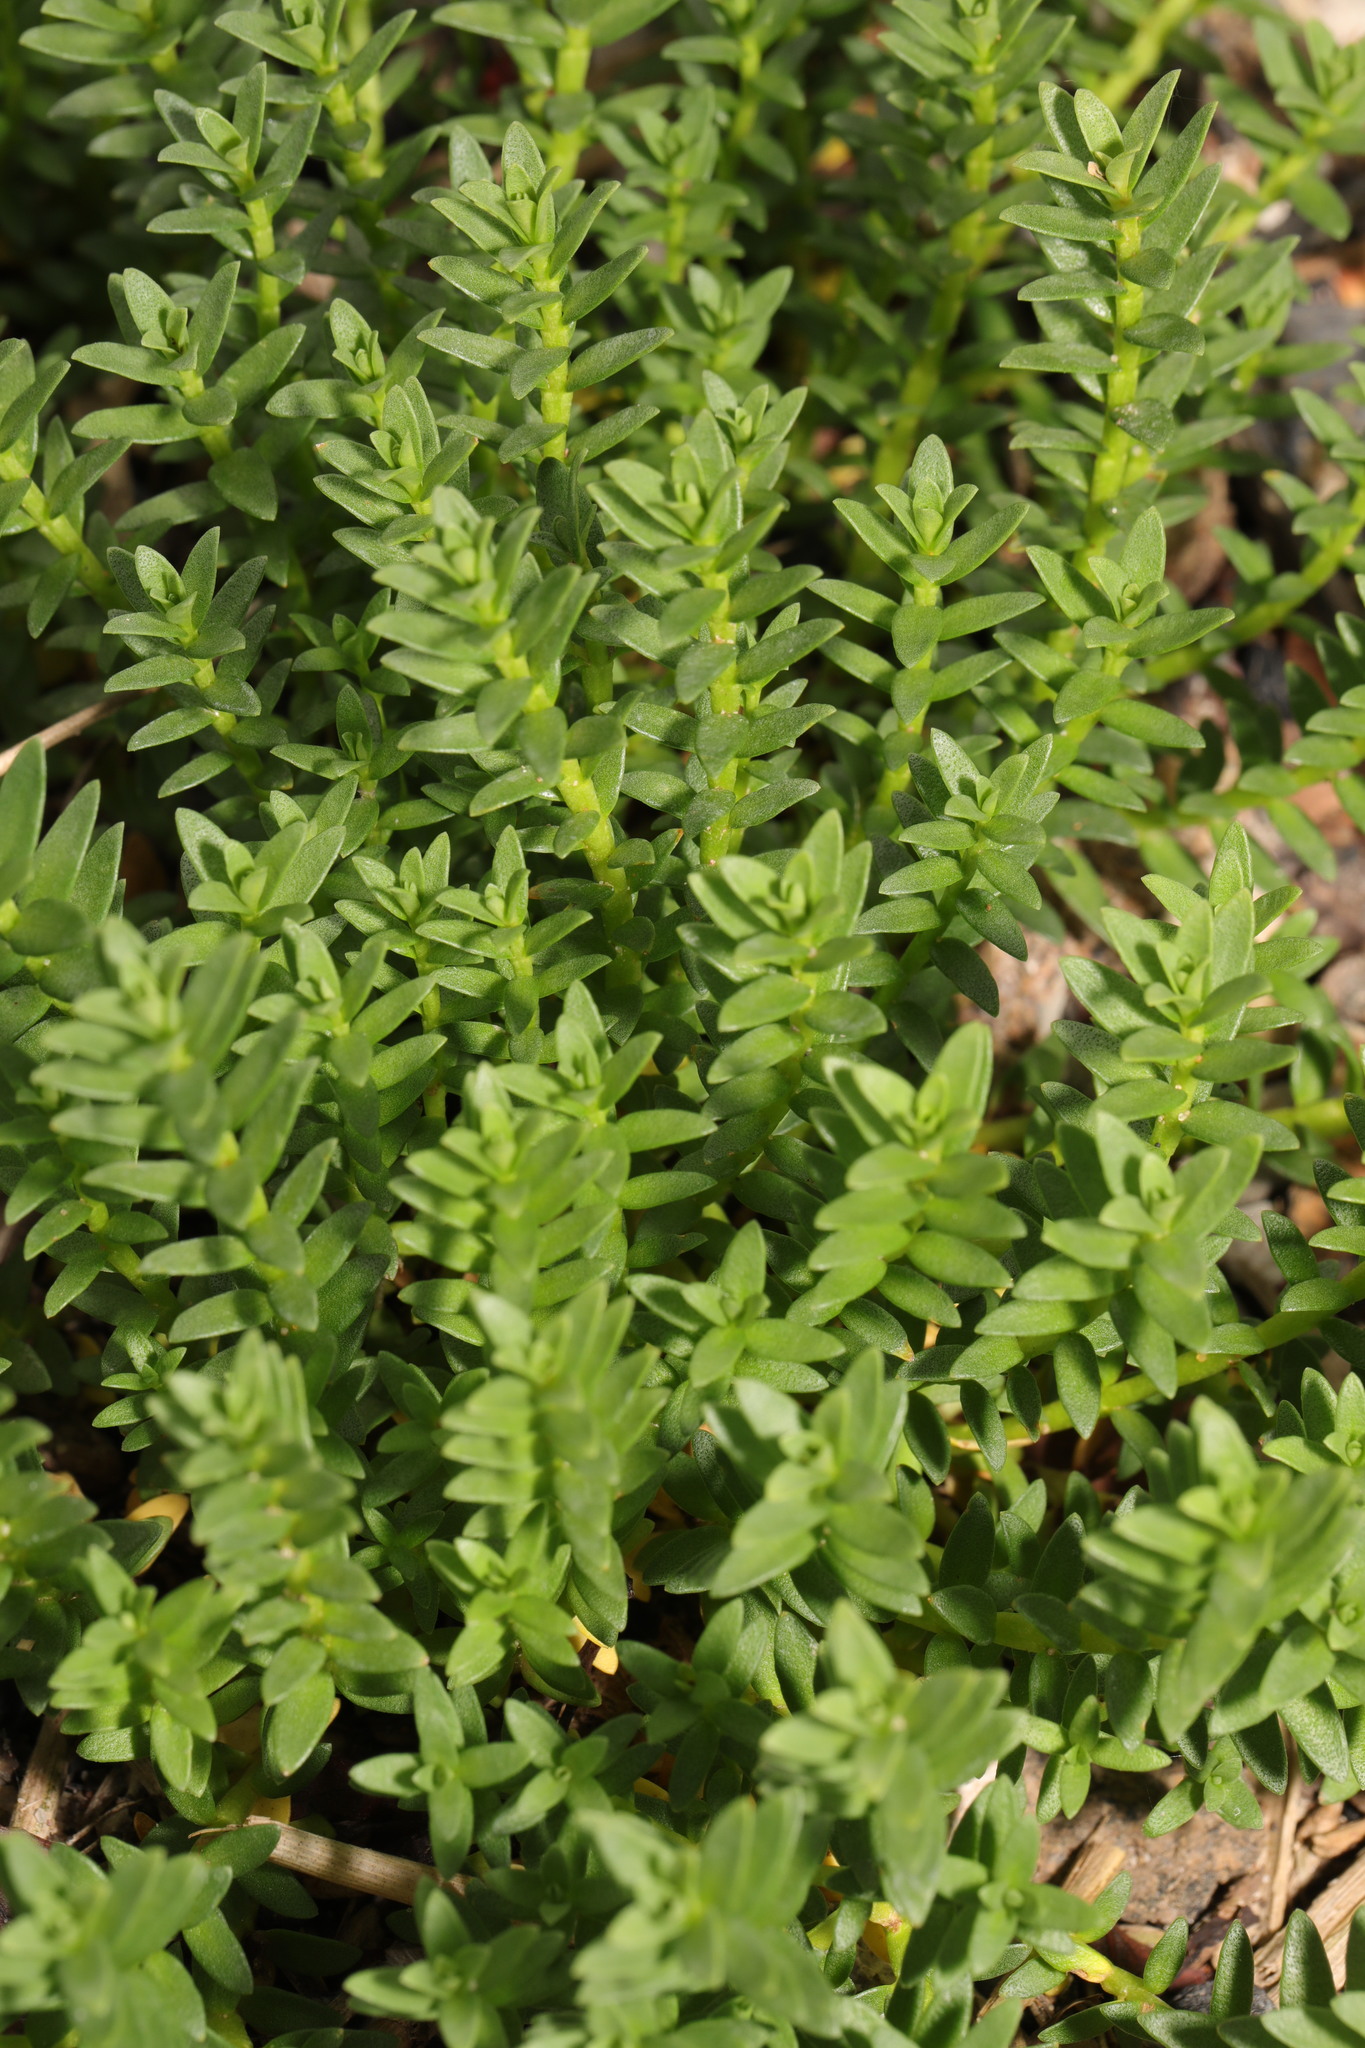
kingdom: Plantae
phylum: Tracheophyta
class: Magnoliopsida
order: Ericales
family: Primulaceae
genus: Lysimachia
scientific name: Lysimachia maritima
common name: Sea milkwort
